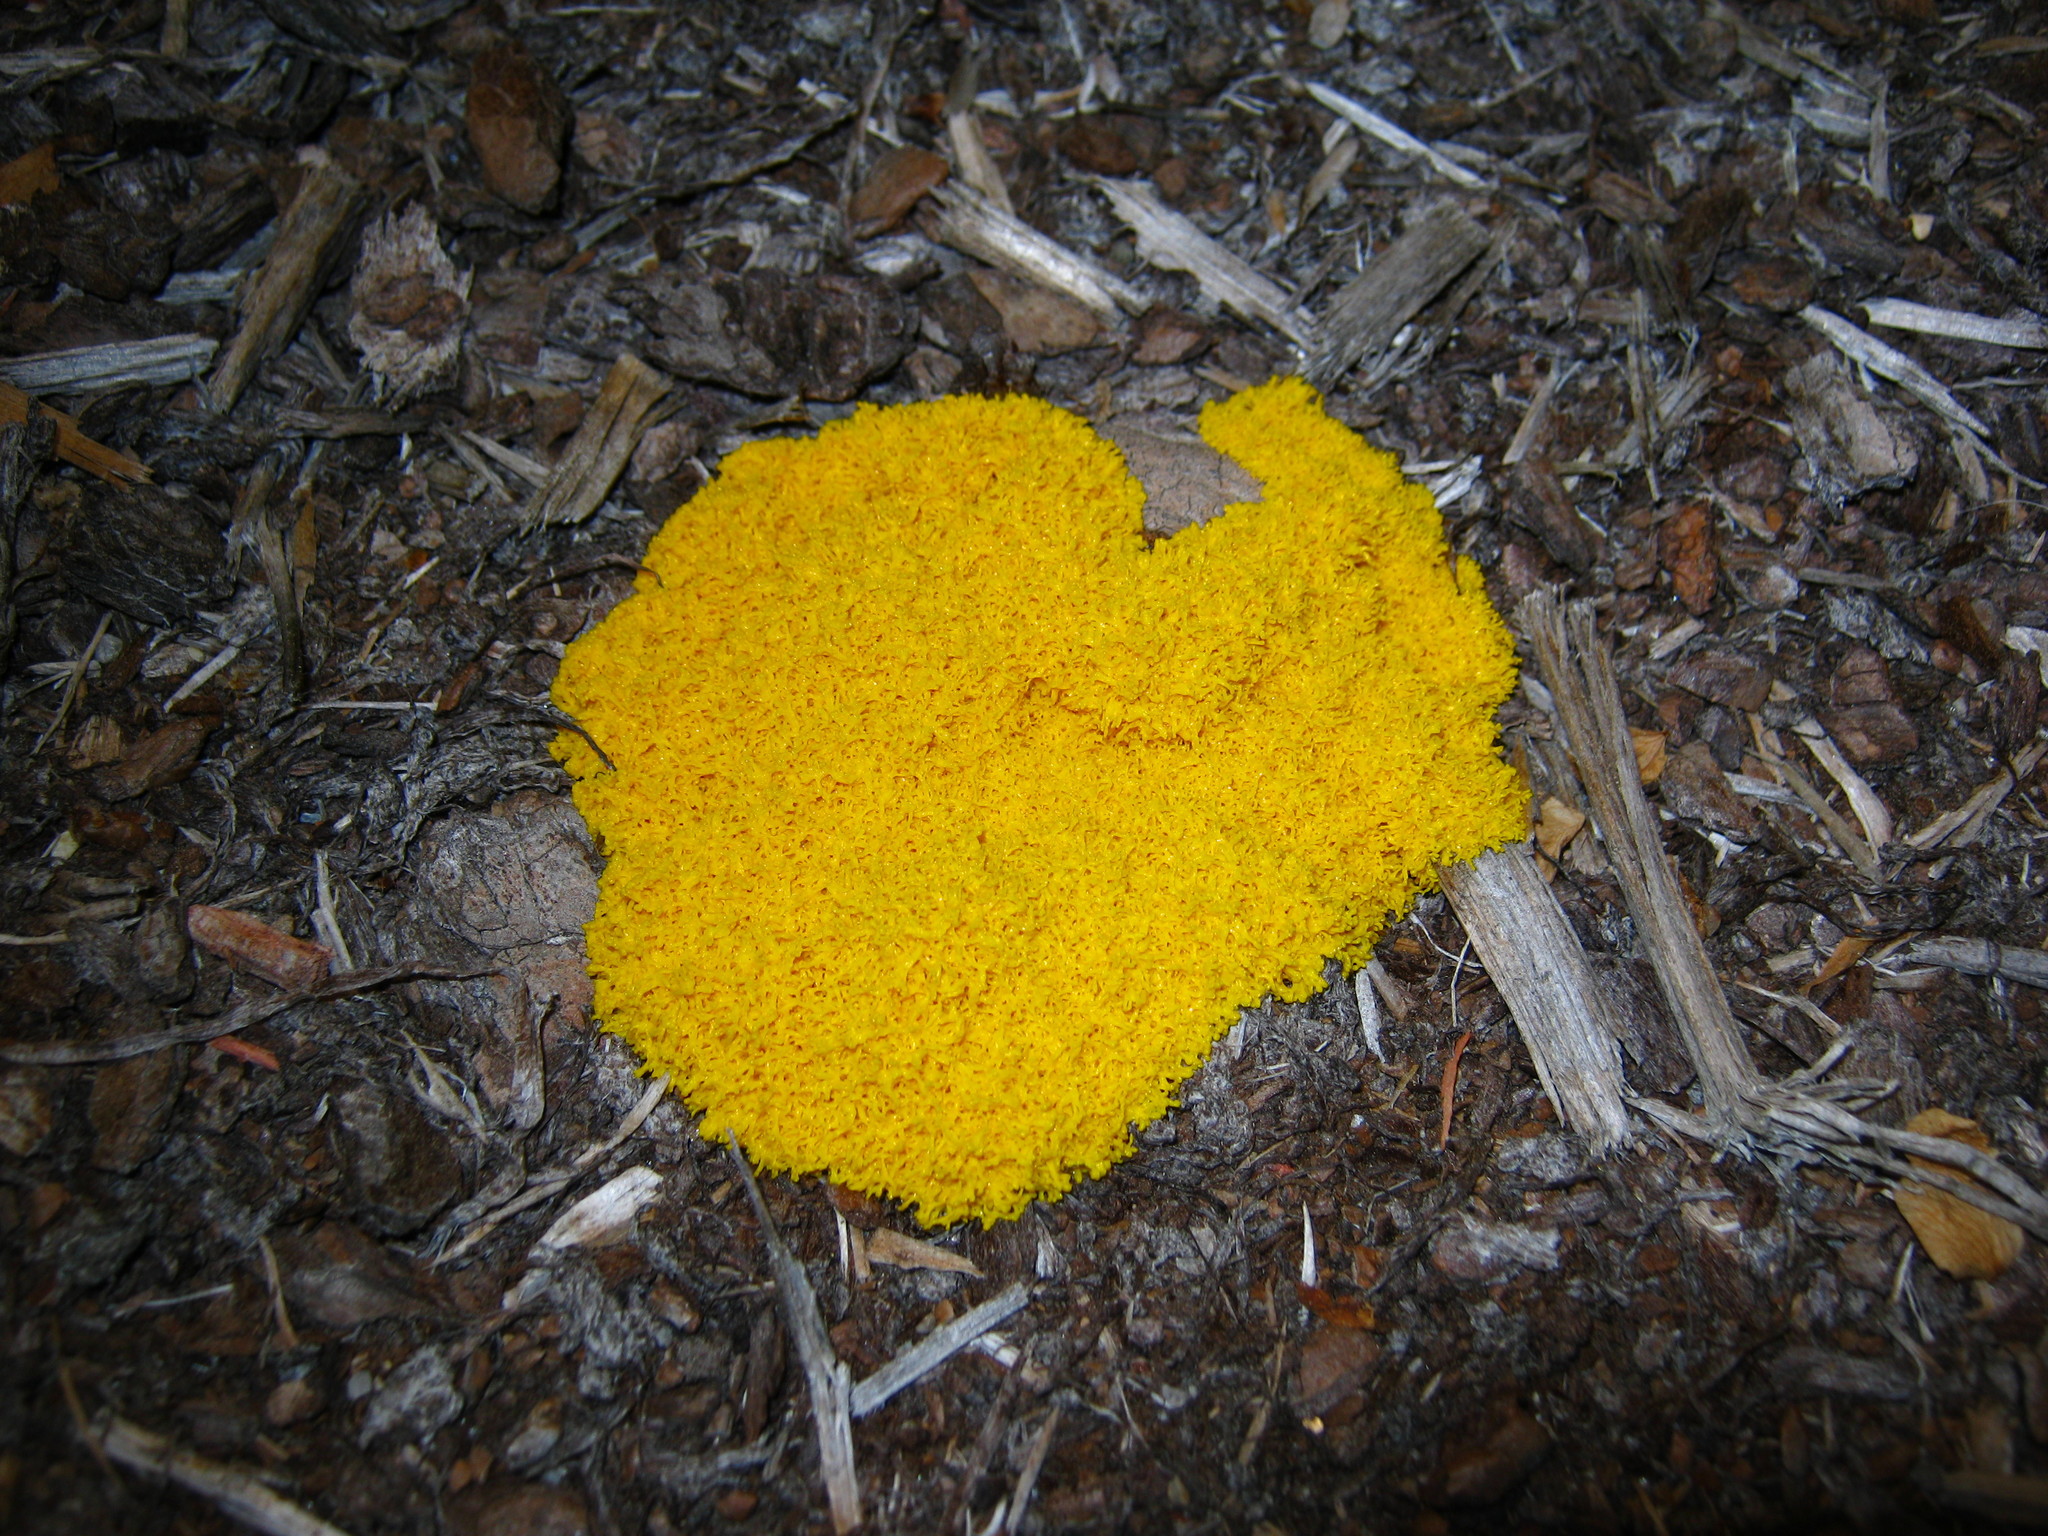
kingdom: Protozoa
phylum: Mycetozoa
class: Myxomycetes
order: Physarales
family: Physaraceae
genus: Fuligo
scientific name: Fuligo septica
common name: Dog vomit slime mold
